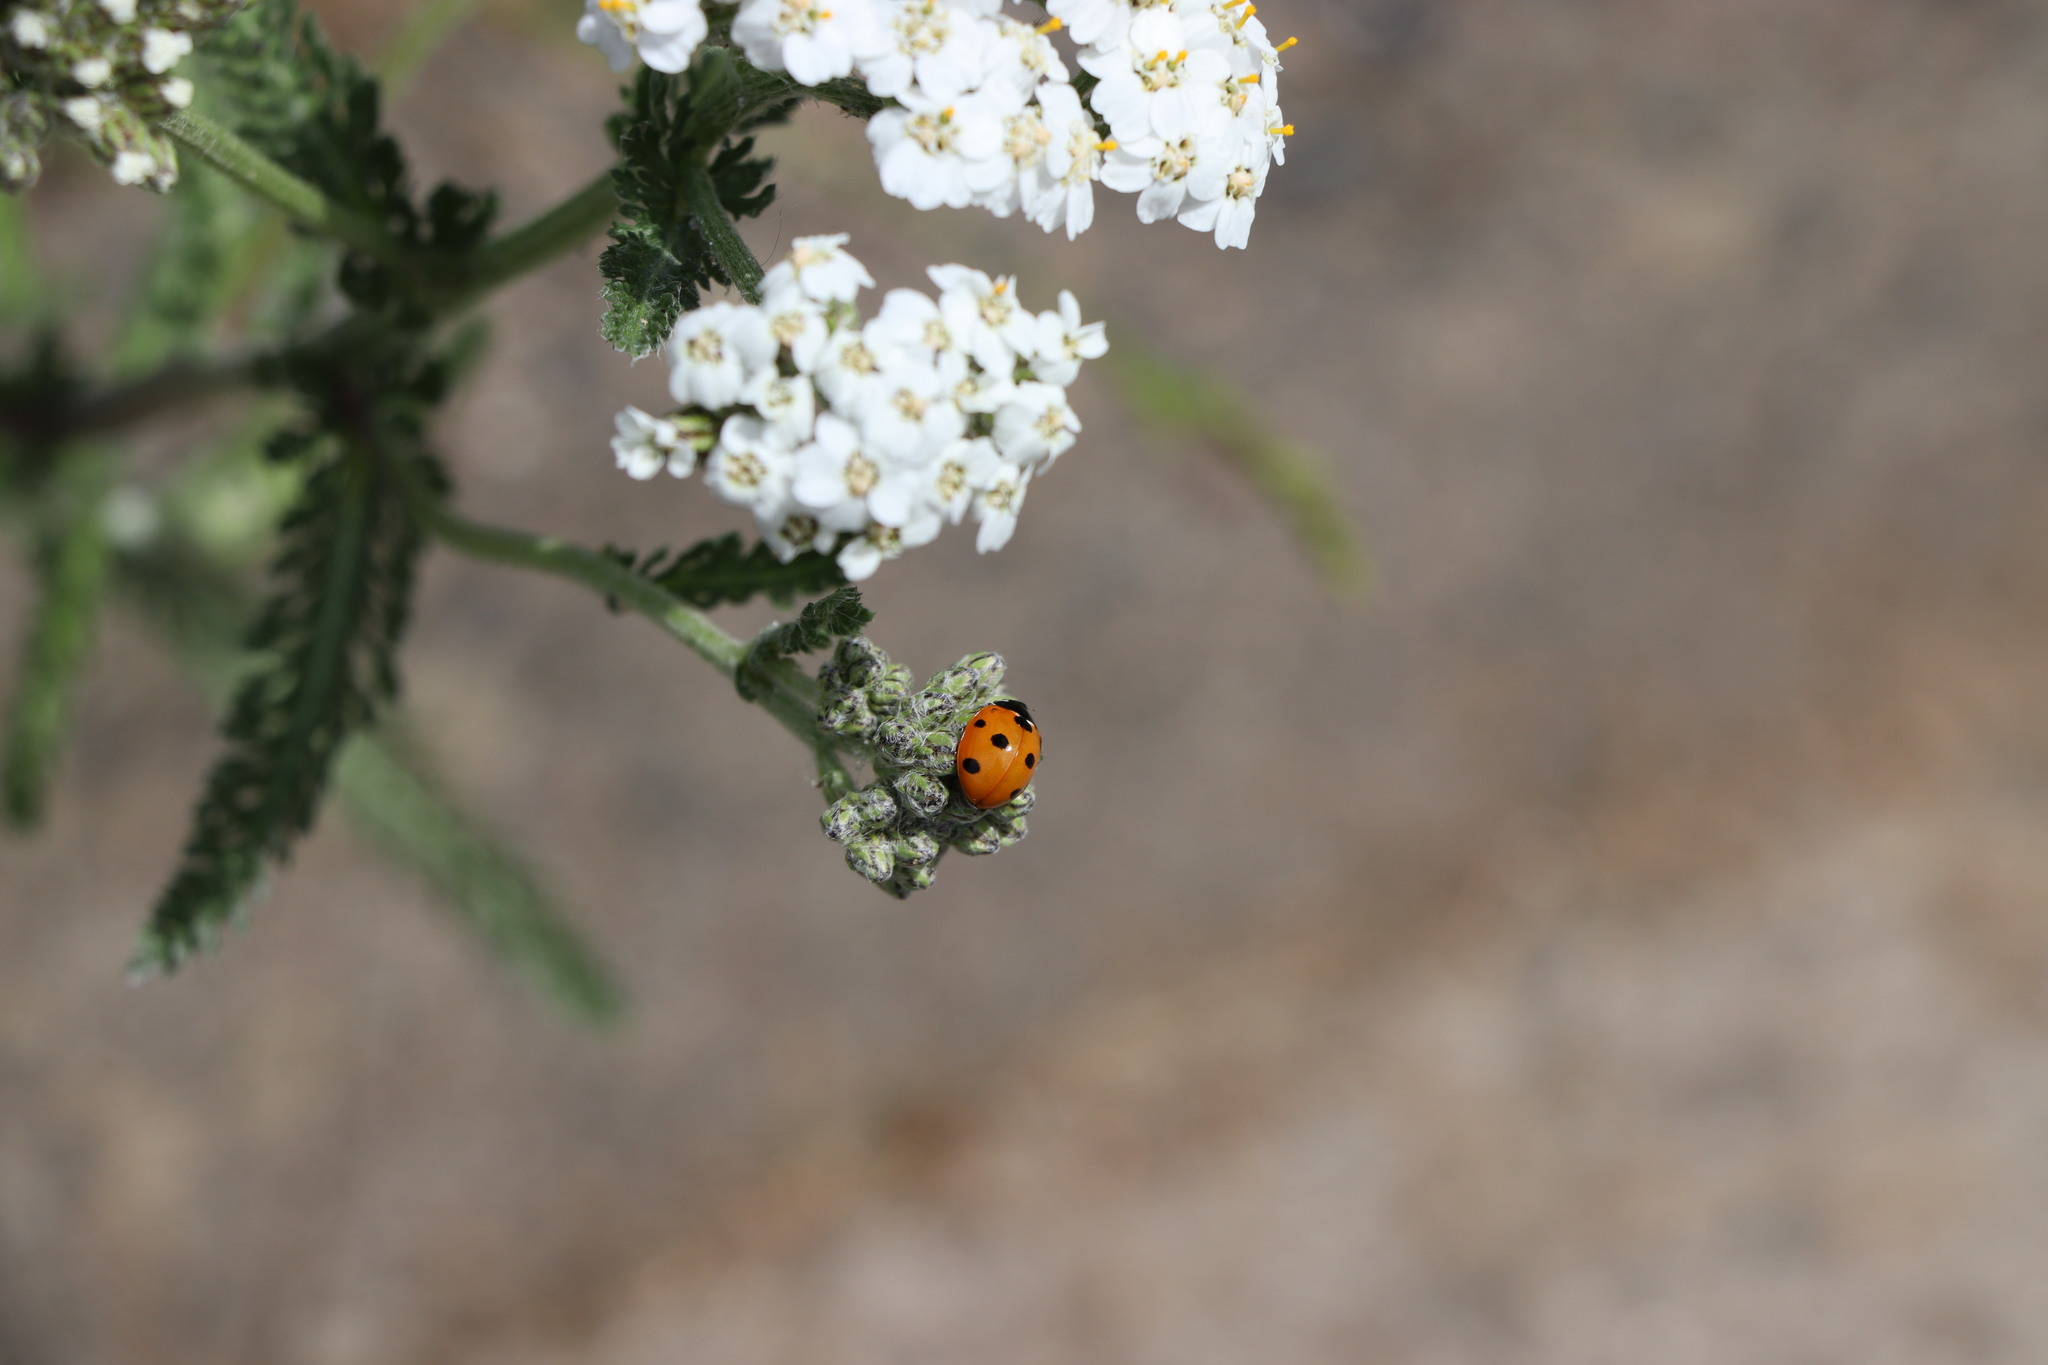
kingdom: Animalia
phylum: Arthropoda
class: Insecta
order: Coleoptera
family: Coccinellidae
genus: Coccinella
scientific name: Coccinella septempunctata
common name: Sevenspotted lady beetle
